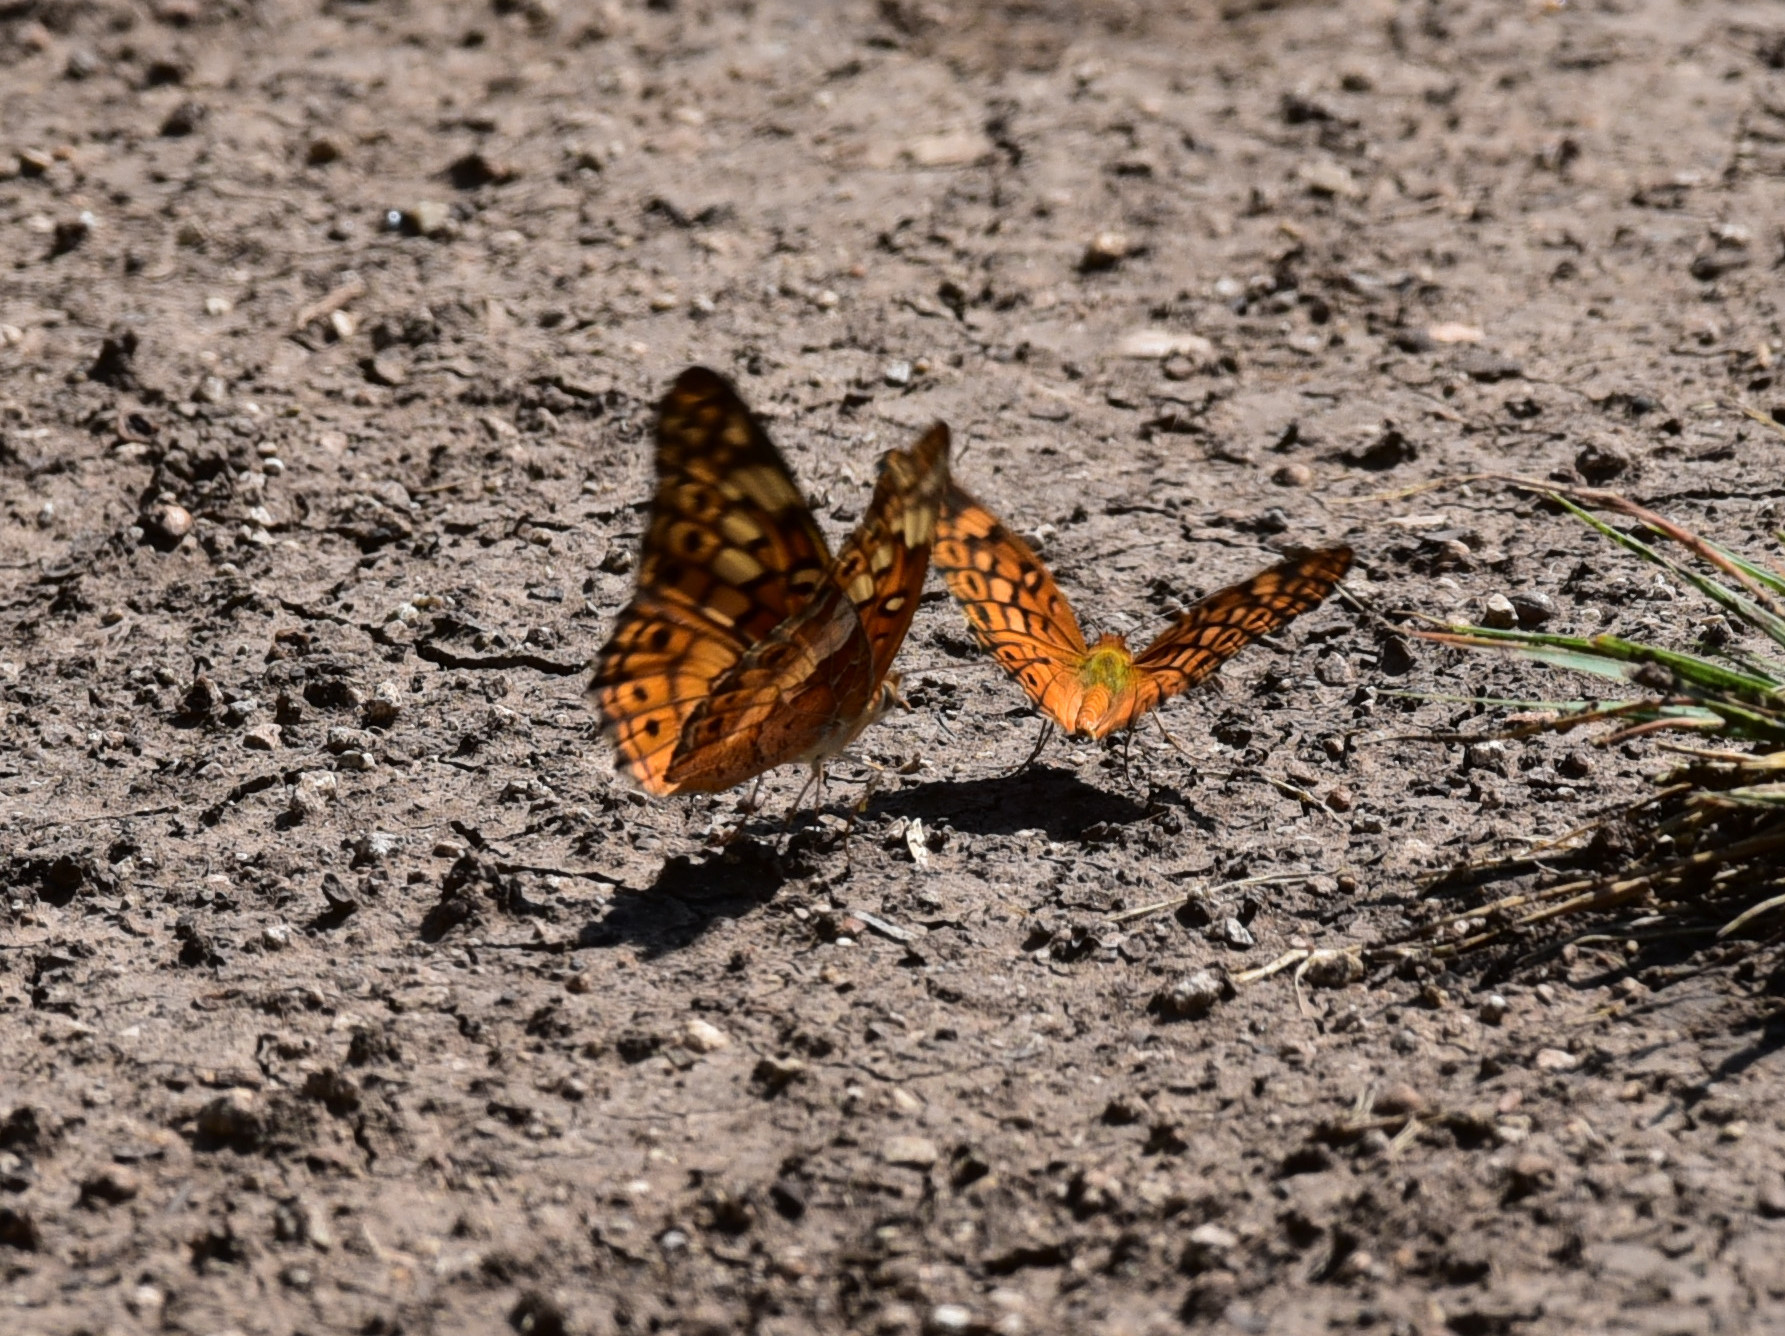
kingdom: Animalia
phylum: Arthropoda
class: Insecta
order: Lepidoptera
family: Nymphalidae
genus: Euptoieta
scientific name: Euptoieta claudia
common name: Variegated fritillary
